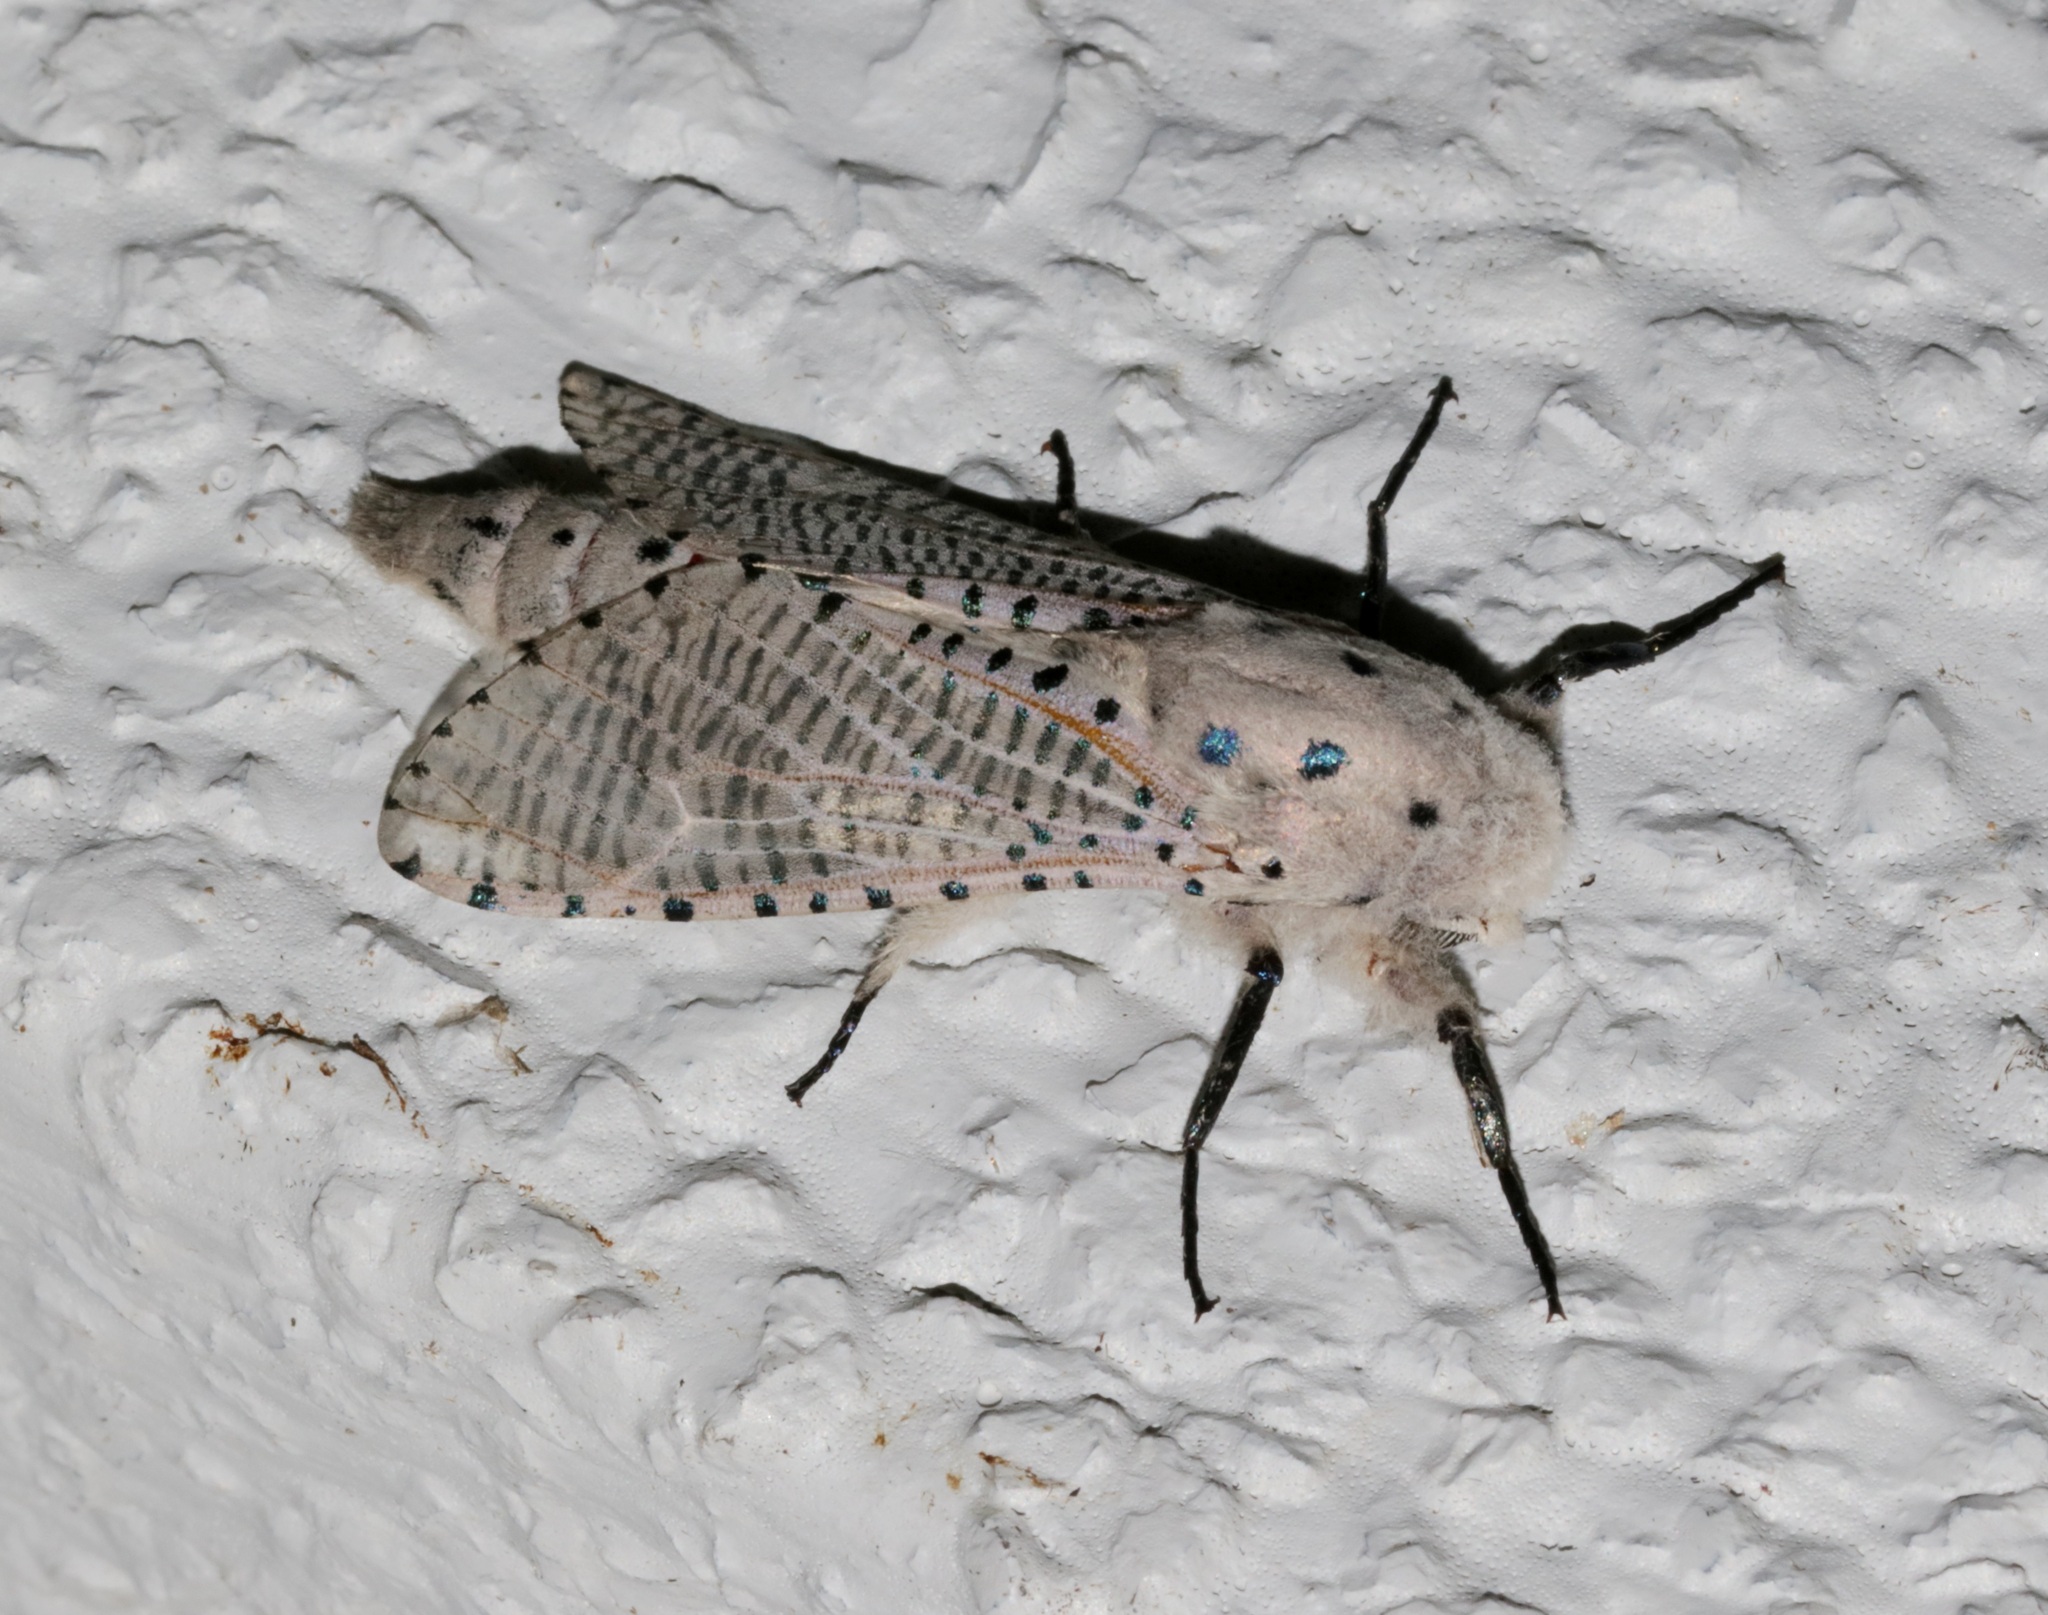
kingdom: Animalia
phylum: Arthropoda
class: Insecta
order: Lepidoptera
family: Cossidae
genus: Polyphagozerra
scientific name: Polyphagozerra coffeae
